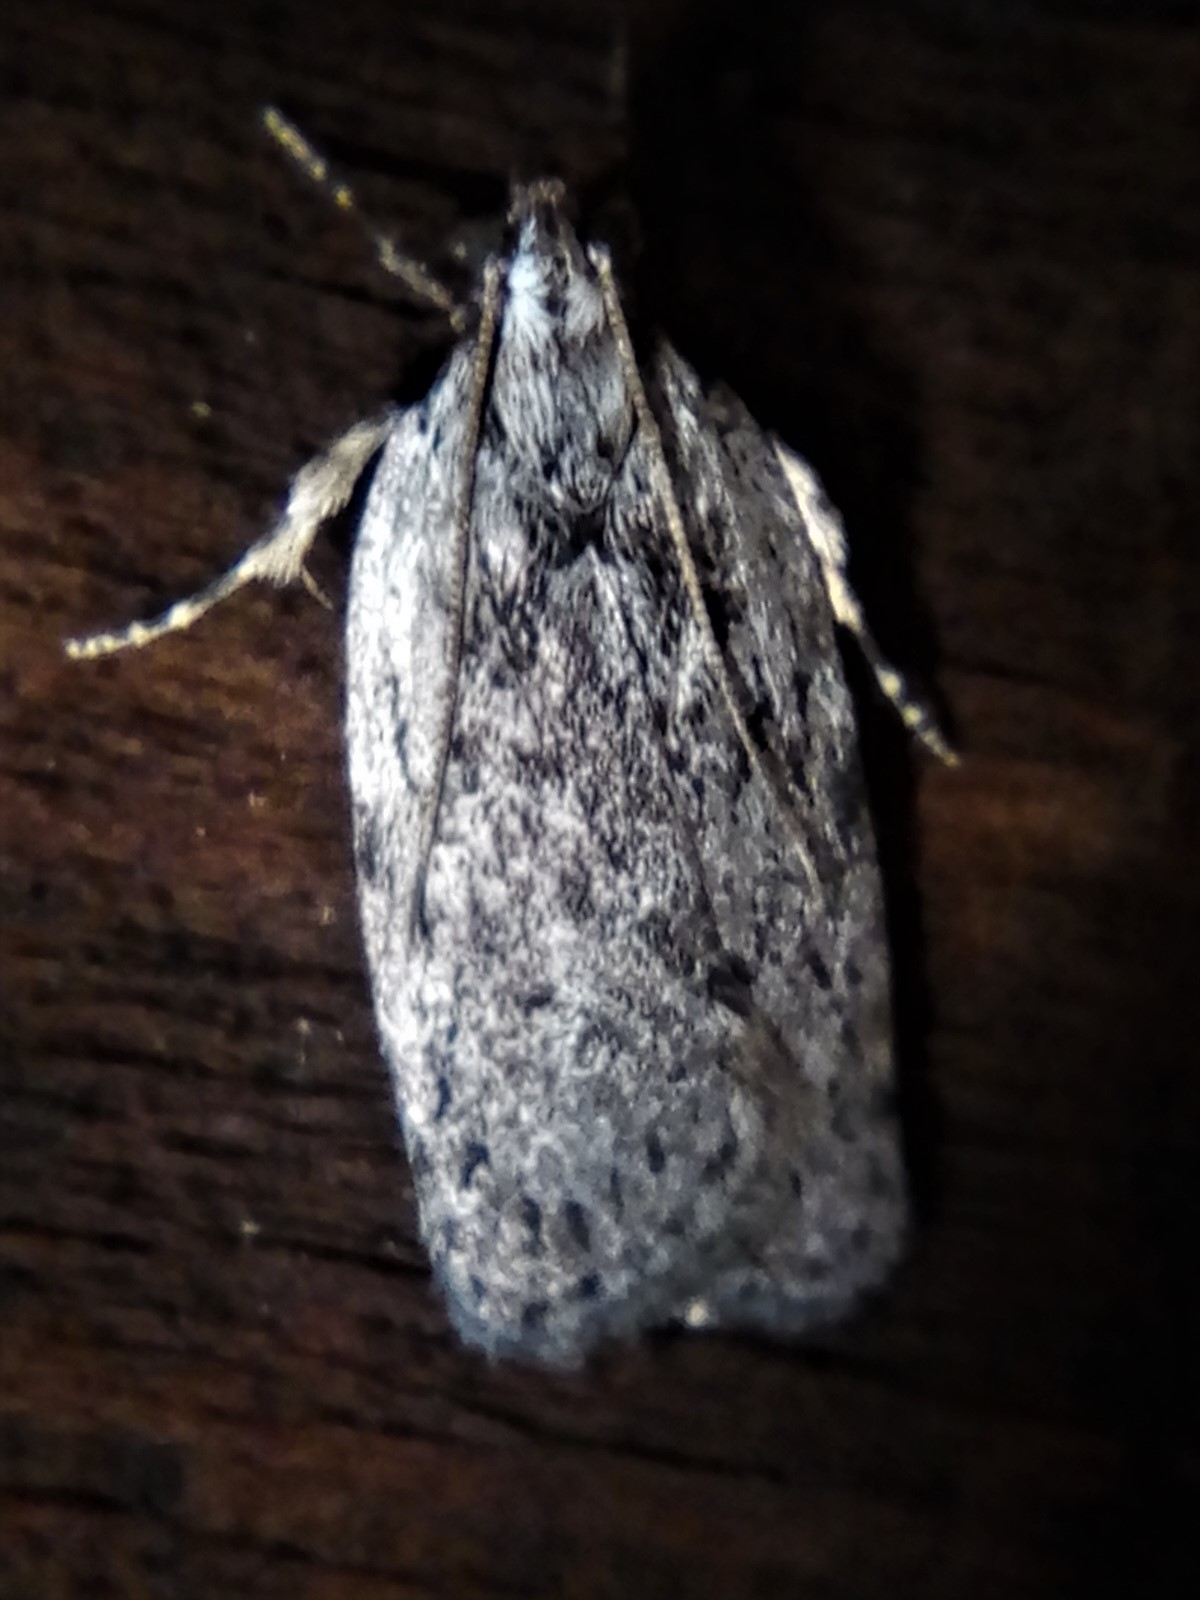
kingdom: Animalia
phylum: Arthropoda
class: Insecta
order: Lepidoptera
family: Depressariidae
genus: Phaeosaces
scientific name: Phaeosaces compsotypa
